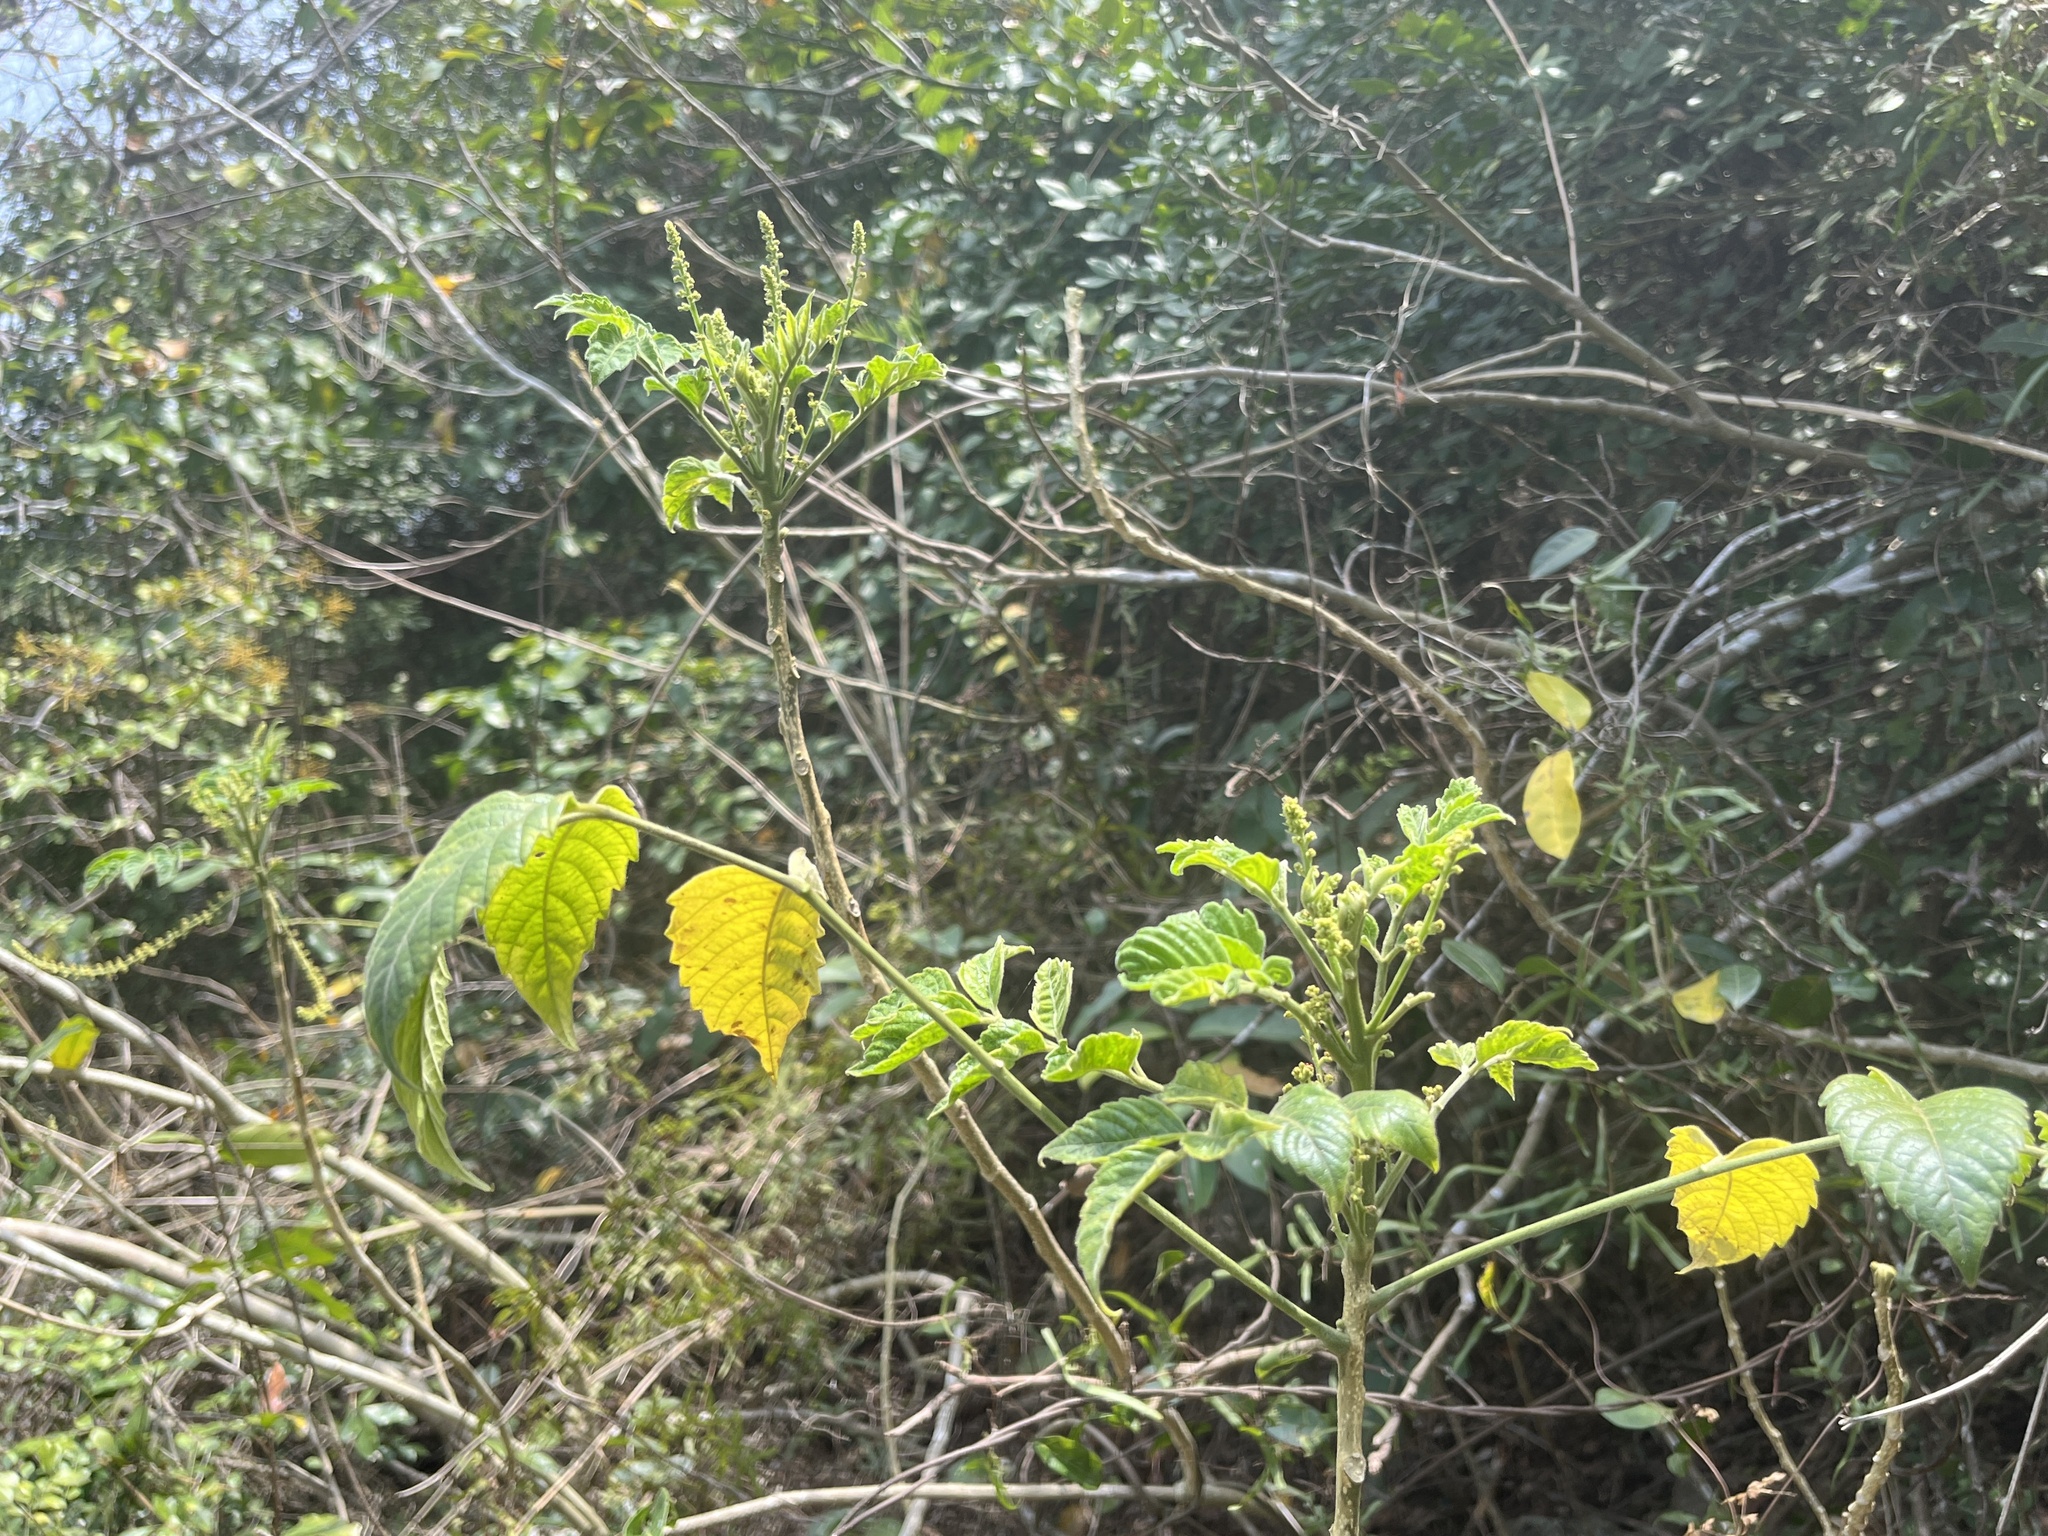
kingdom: Plantae
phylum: Tracheophyta
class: Magnoliopsida
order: Sapindales
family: Simaroubaceae
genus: Brucea
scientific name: Brucea javanica
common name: Macassar kernels
